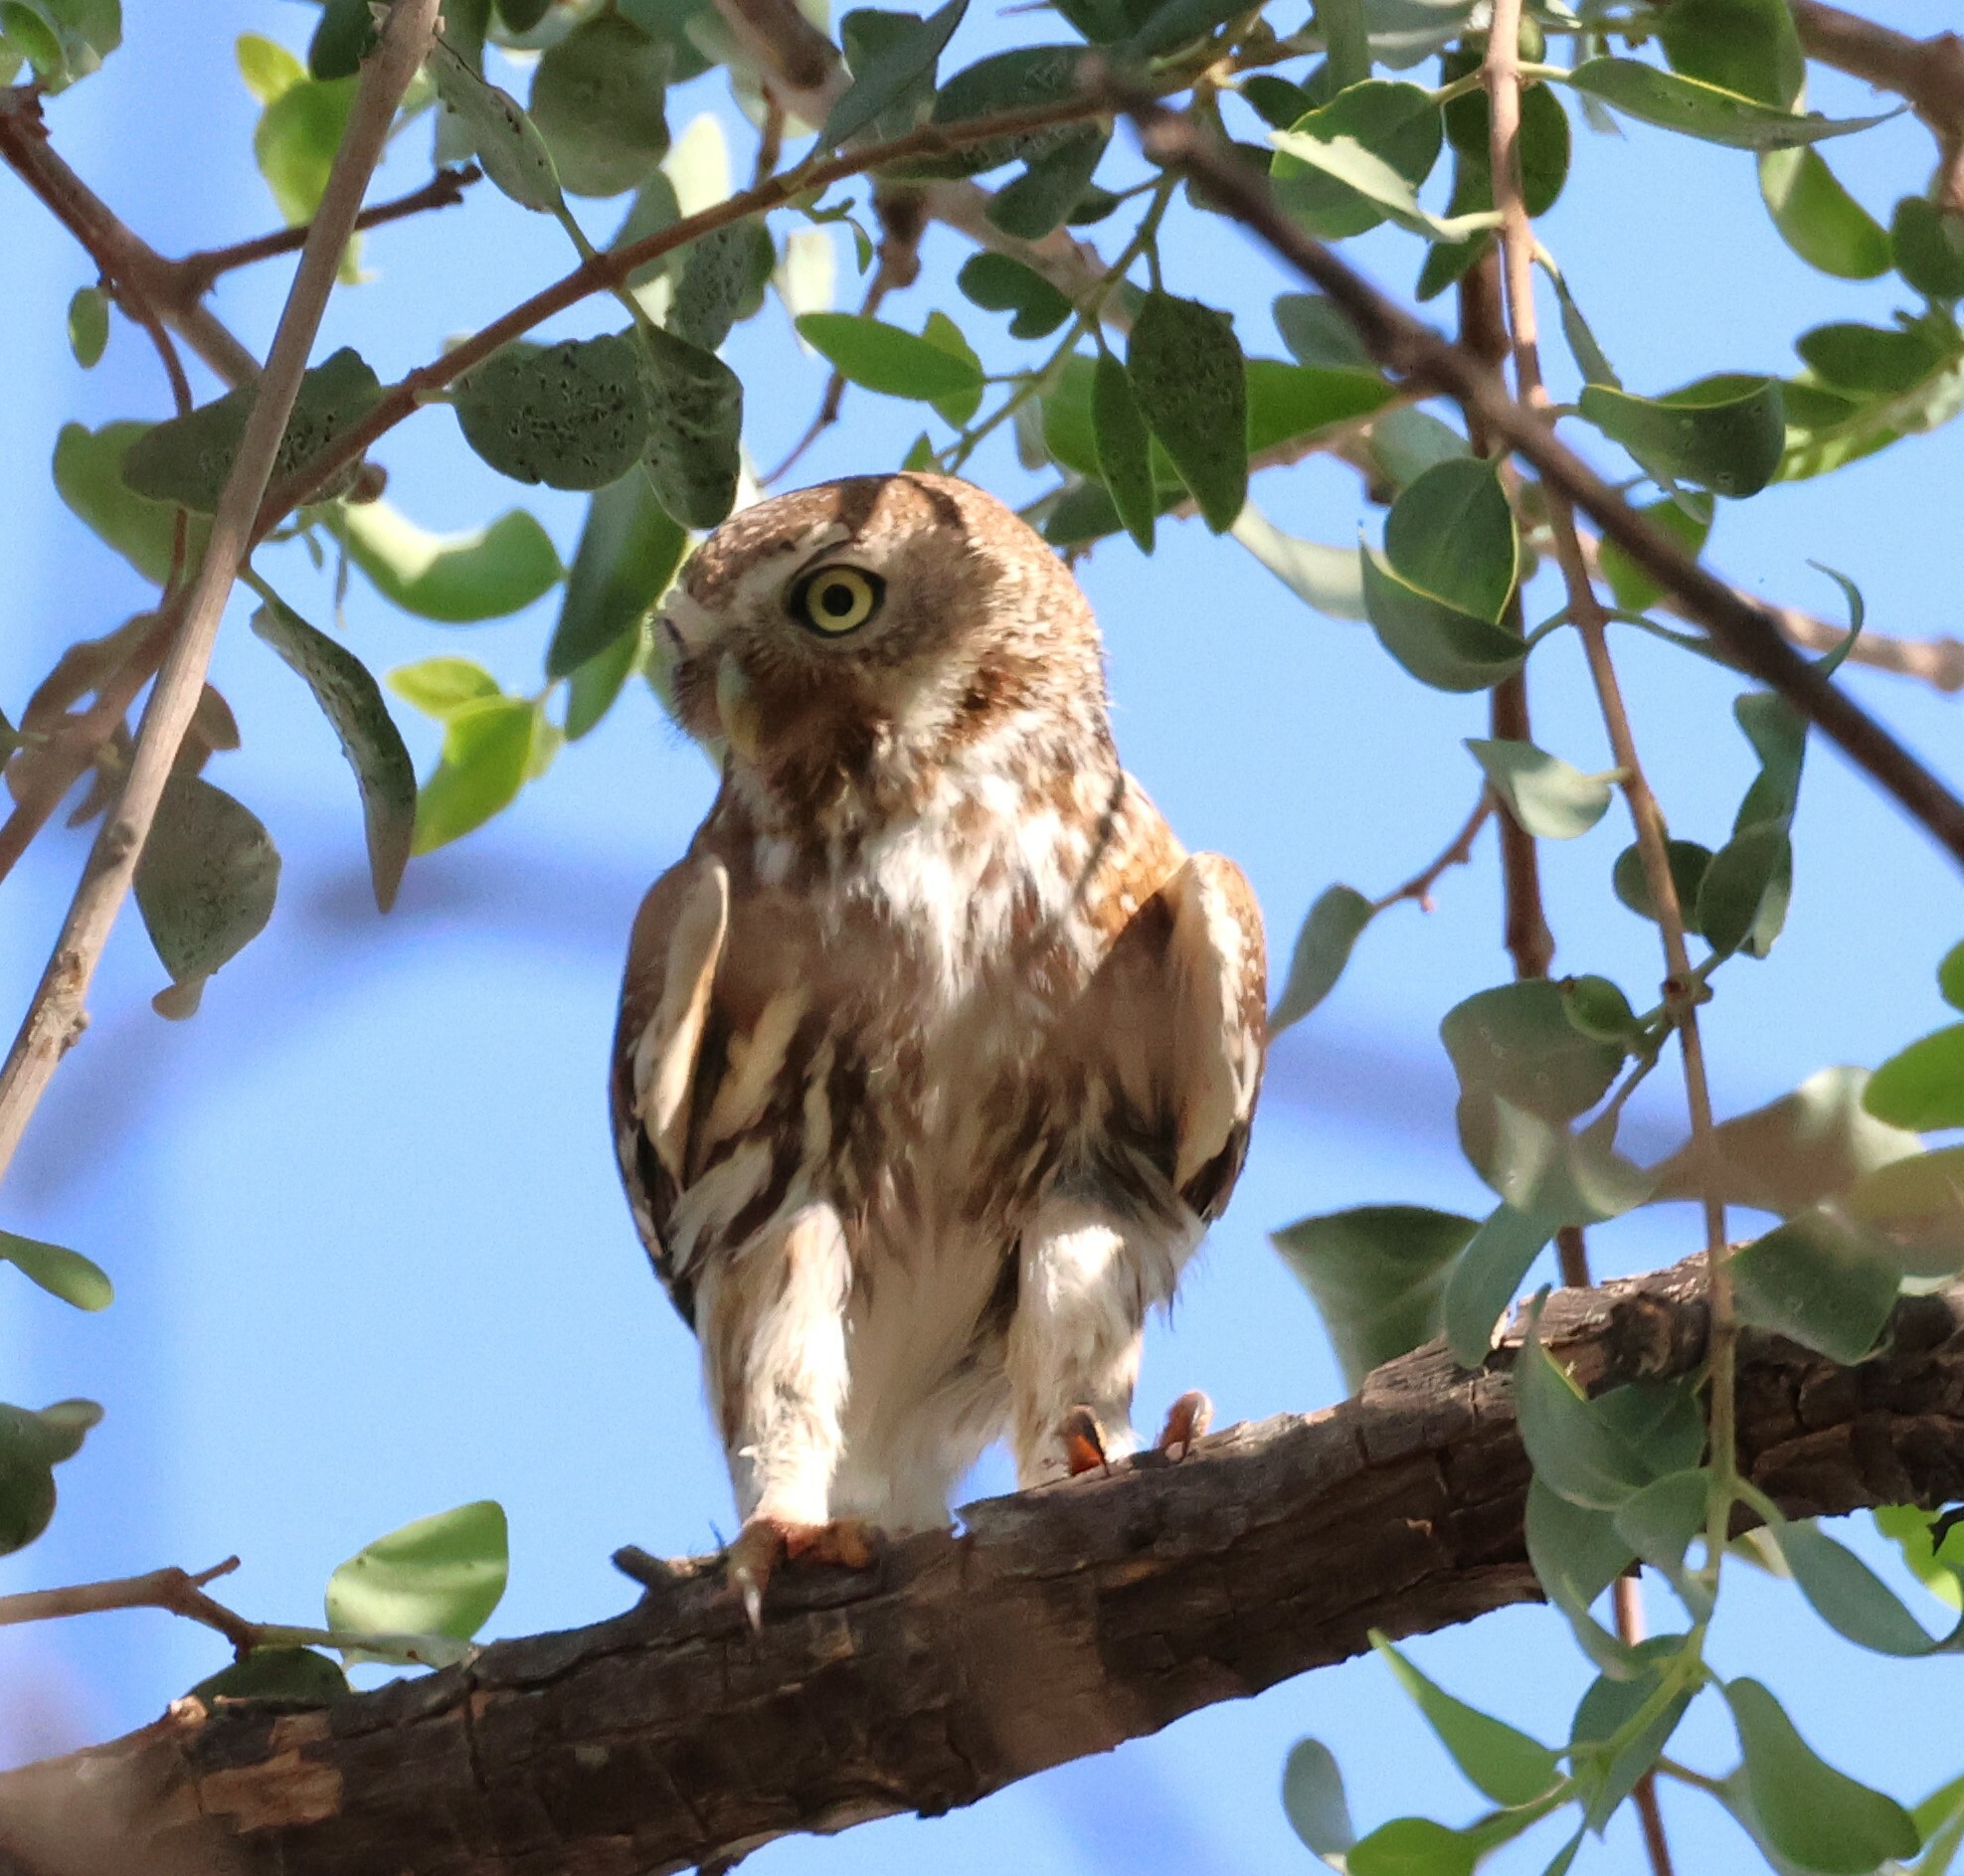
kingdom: Animalia
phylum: Chordata
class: Aves
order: Strigiformes
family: Strigidae
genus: Glaucidium
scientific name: Glaucidium perlatum
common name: Pearl-spotted owlet
